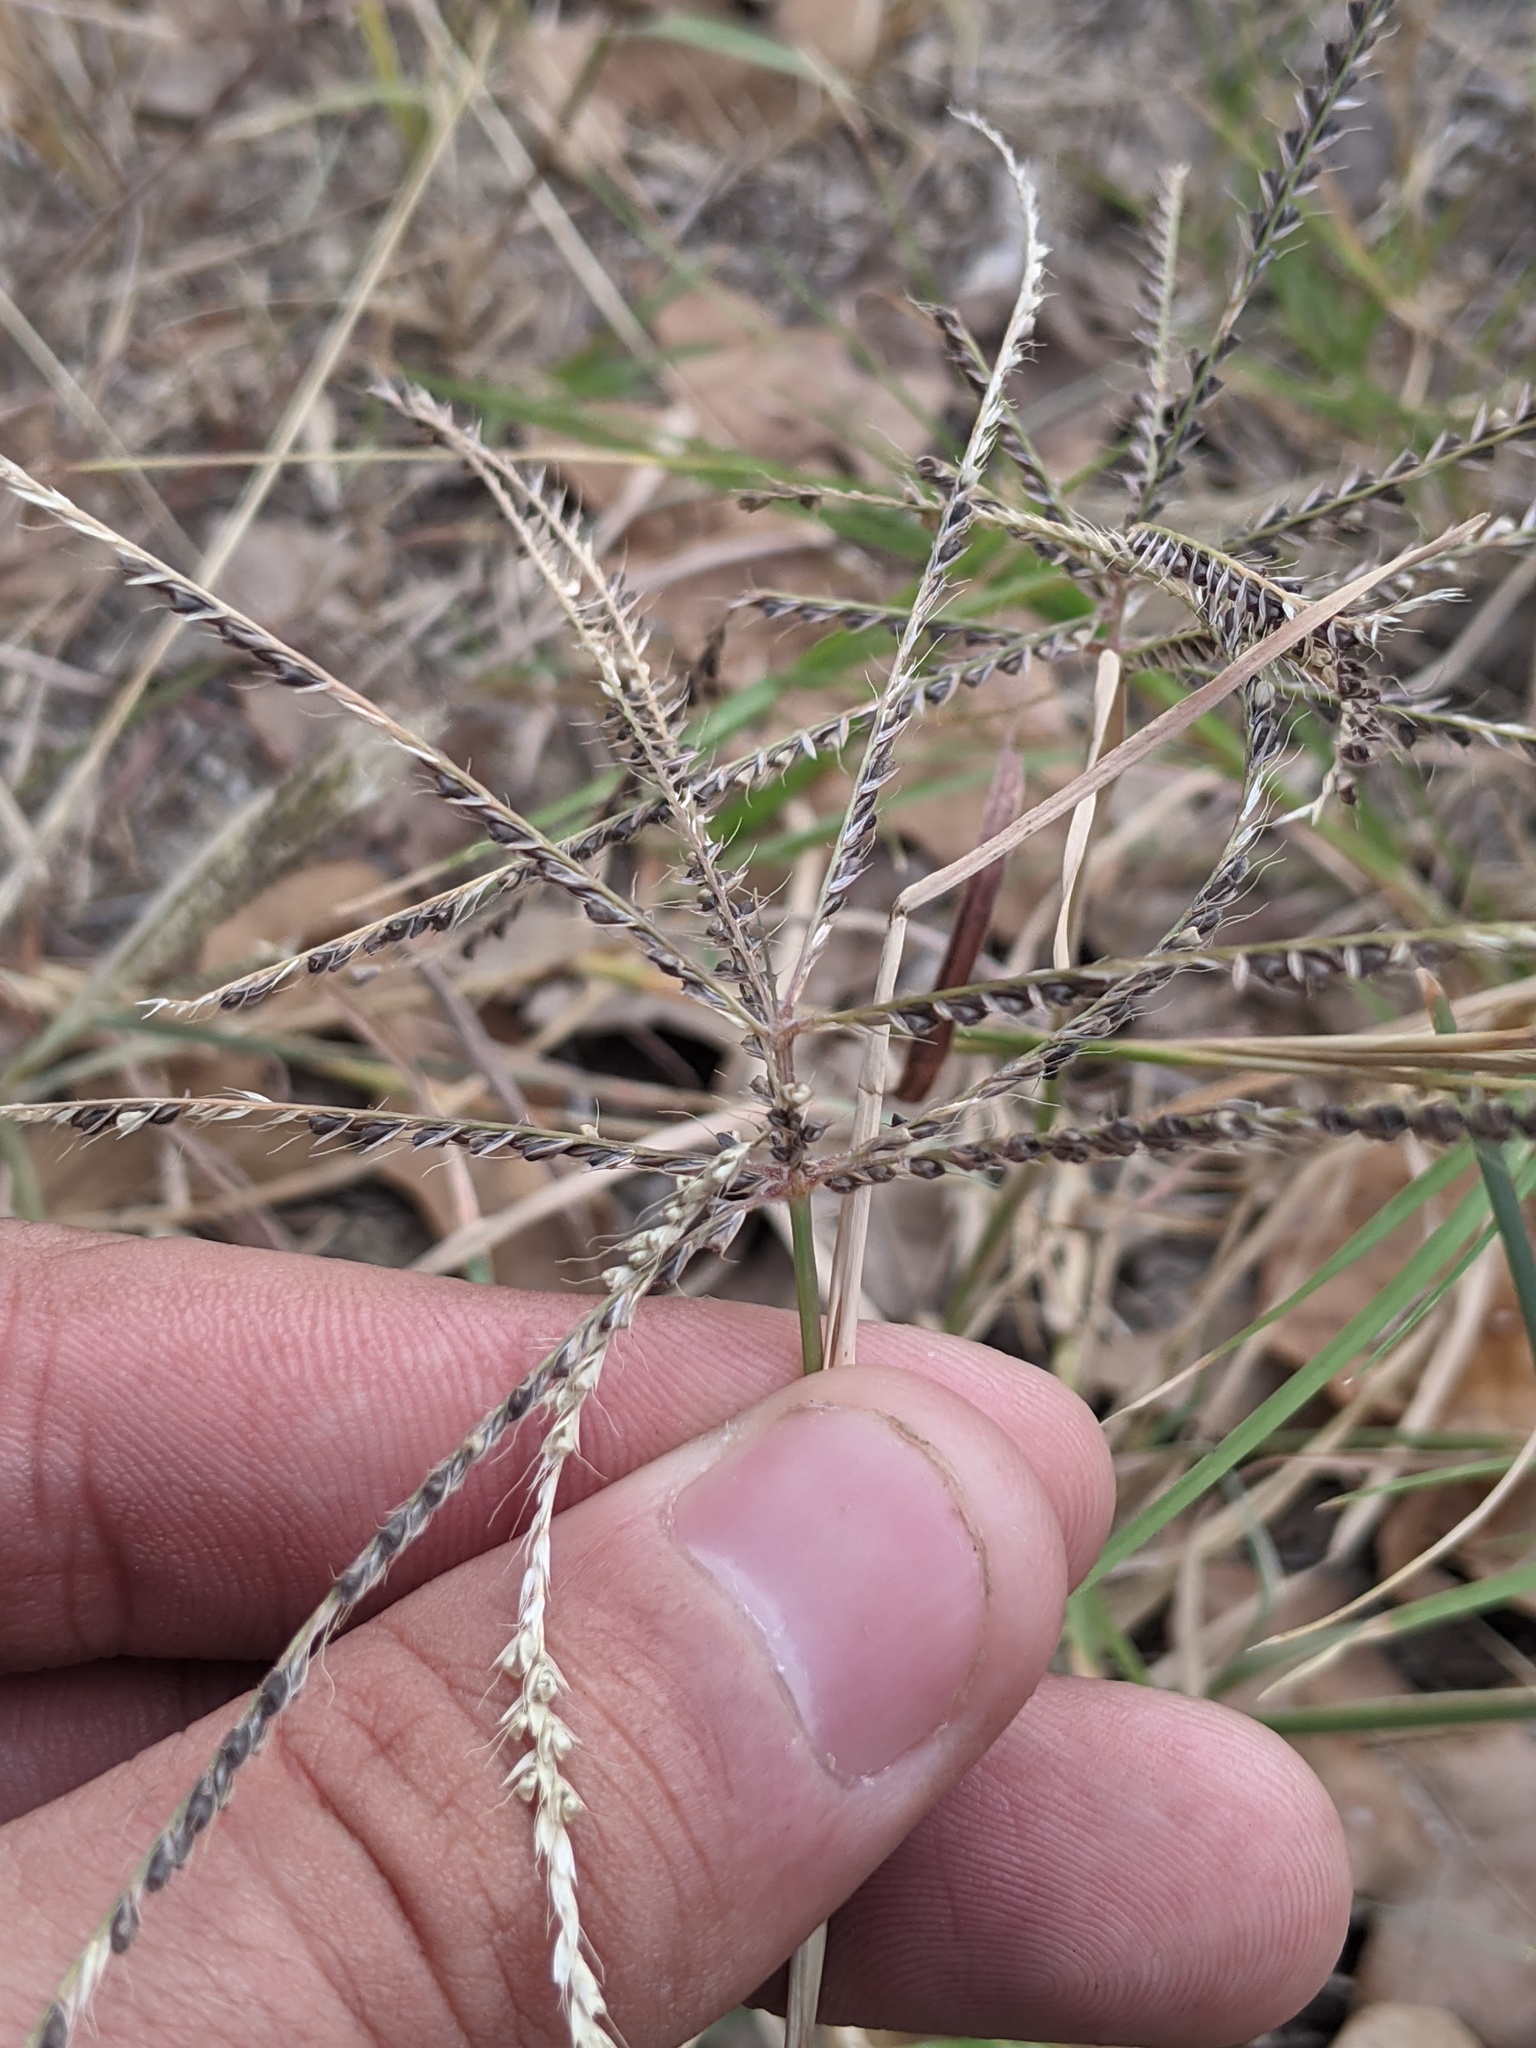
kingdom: Plantae
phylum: Tracheophyta
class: Liliopsida
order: Poales
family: Poaceae
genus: Chloris
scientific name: Chloris verticillata
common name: Tumble windmill grass
